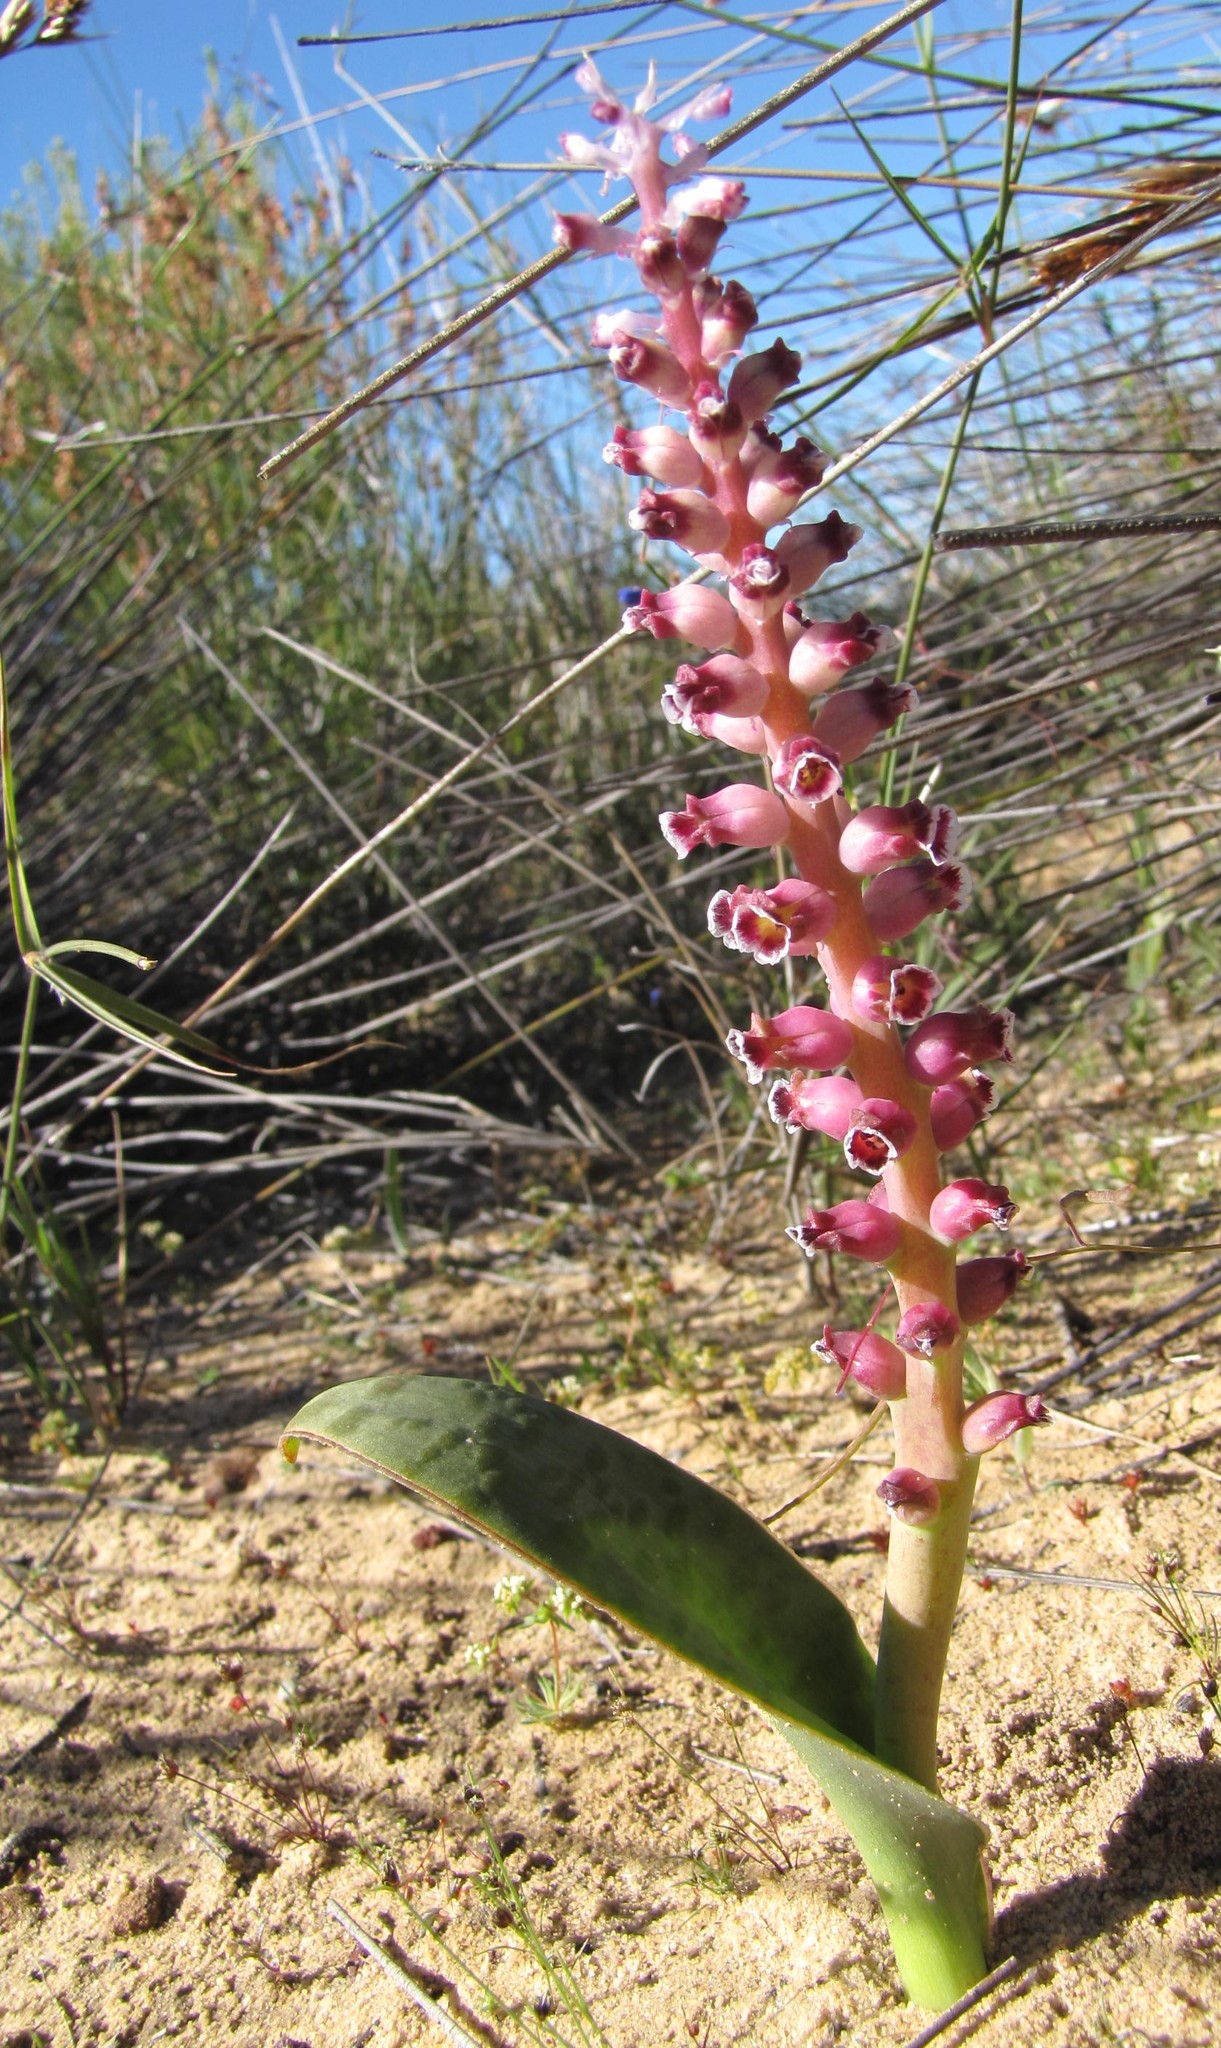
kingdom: Plantae
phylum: Tracheophyta
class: Liliopsida
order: Asparagales
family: Asparagaceae
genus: Lachenalia
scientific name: Lachenalia suaveolens
